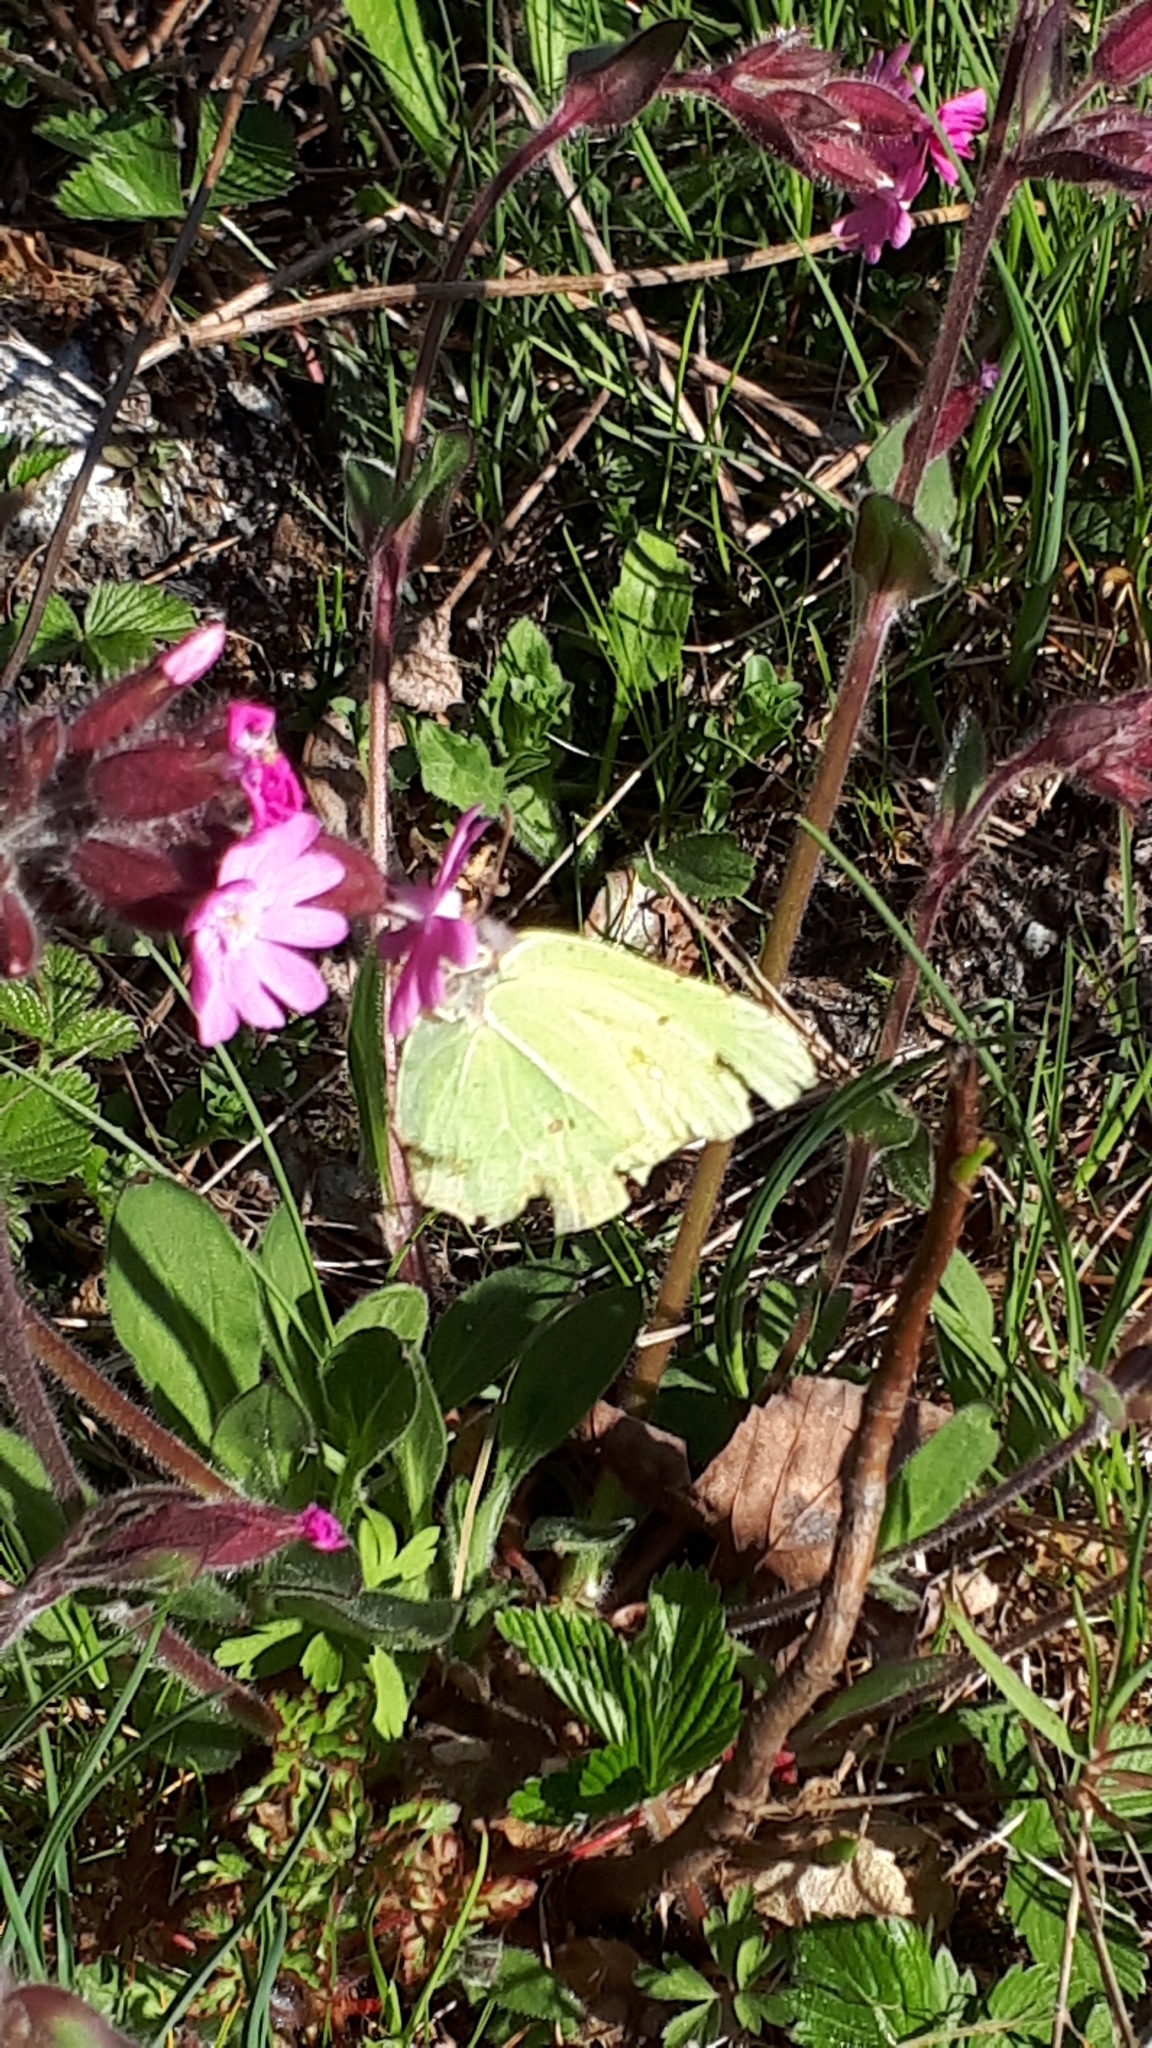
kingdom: Animalia
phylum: Arthropoda
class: Insecta
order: Lepidoptera
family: Pieridae
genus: Gonepteryx
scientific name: Gonepteryx rhamni
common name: Brimstone
